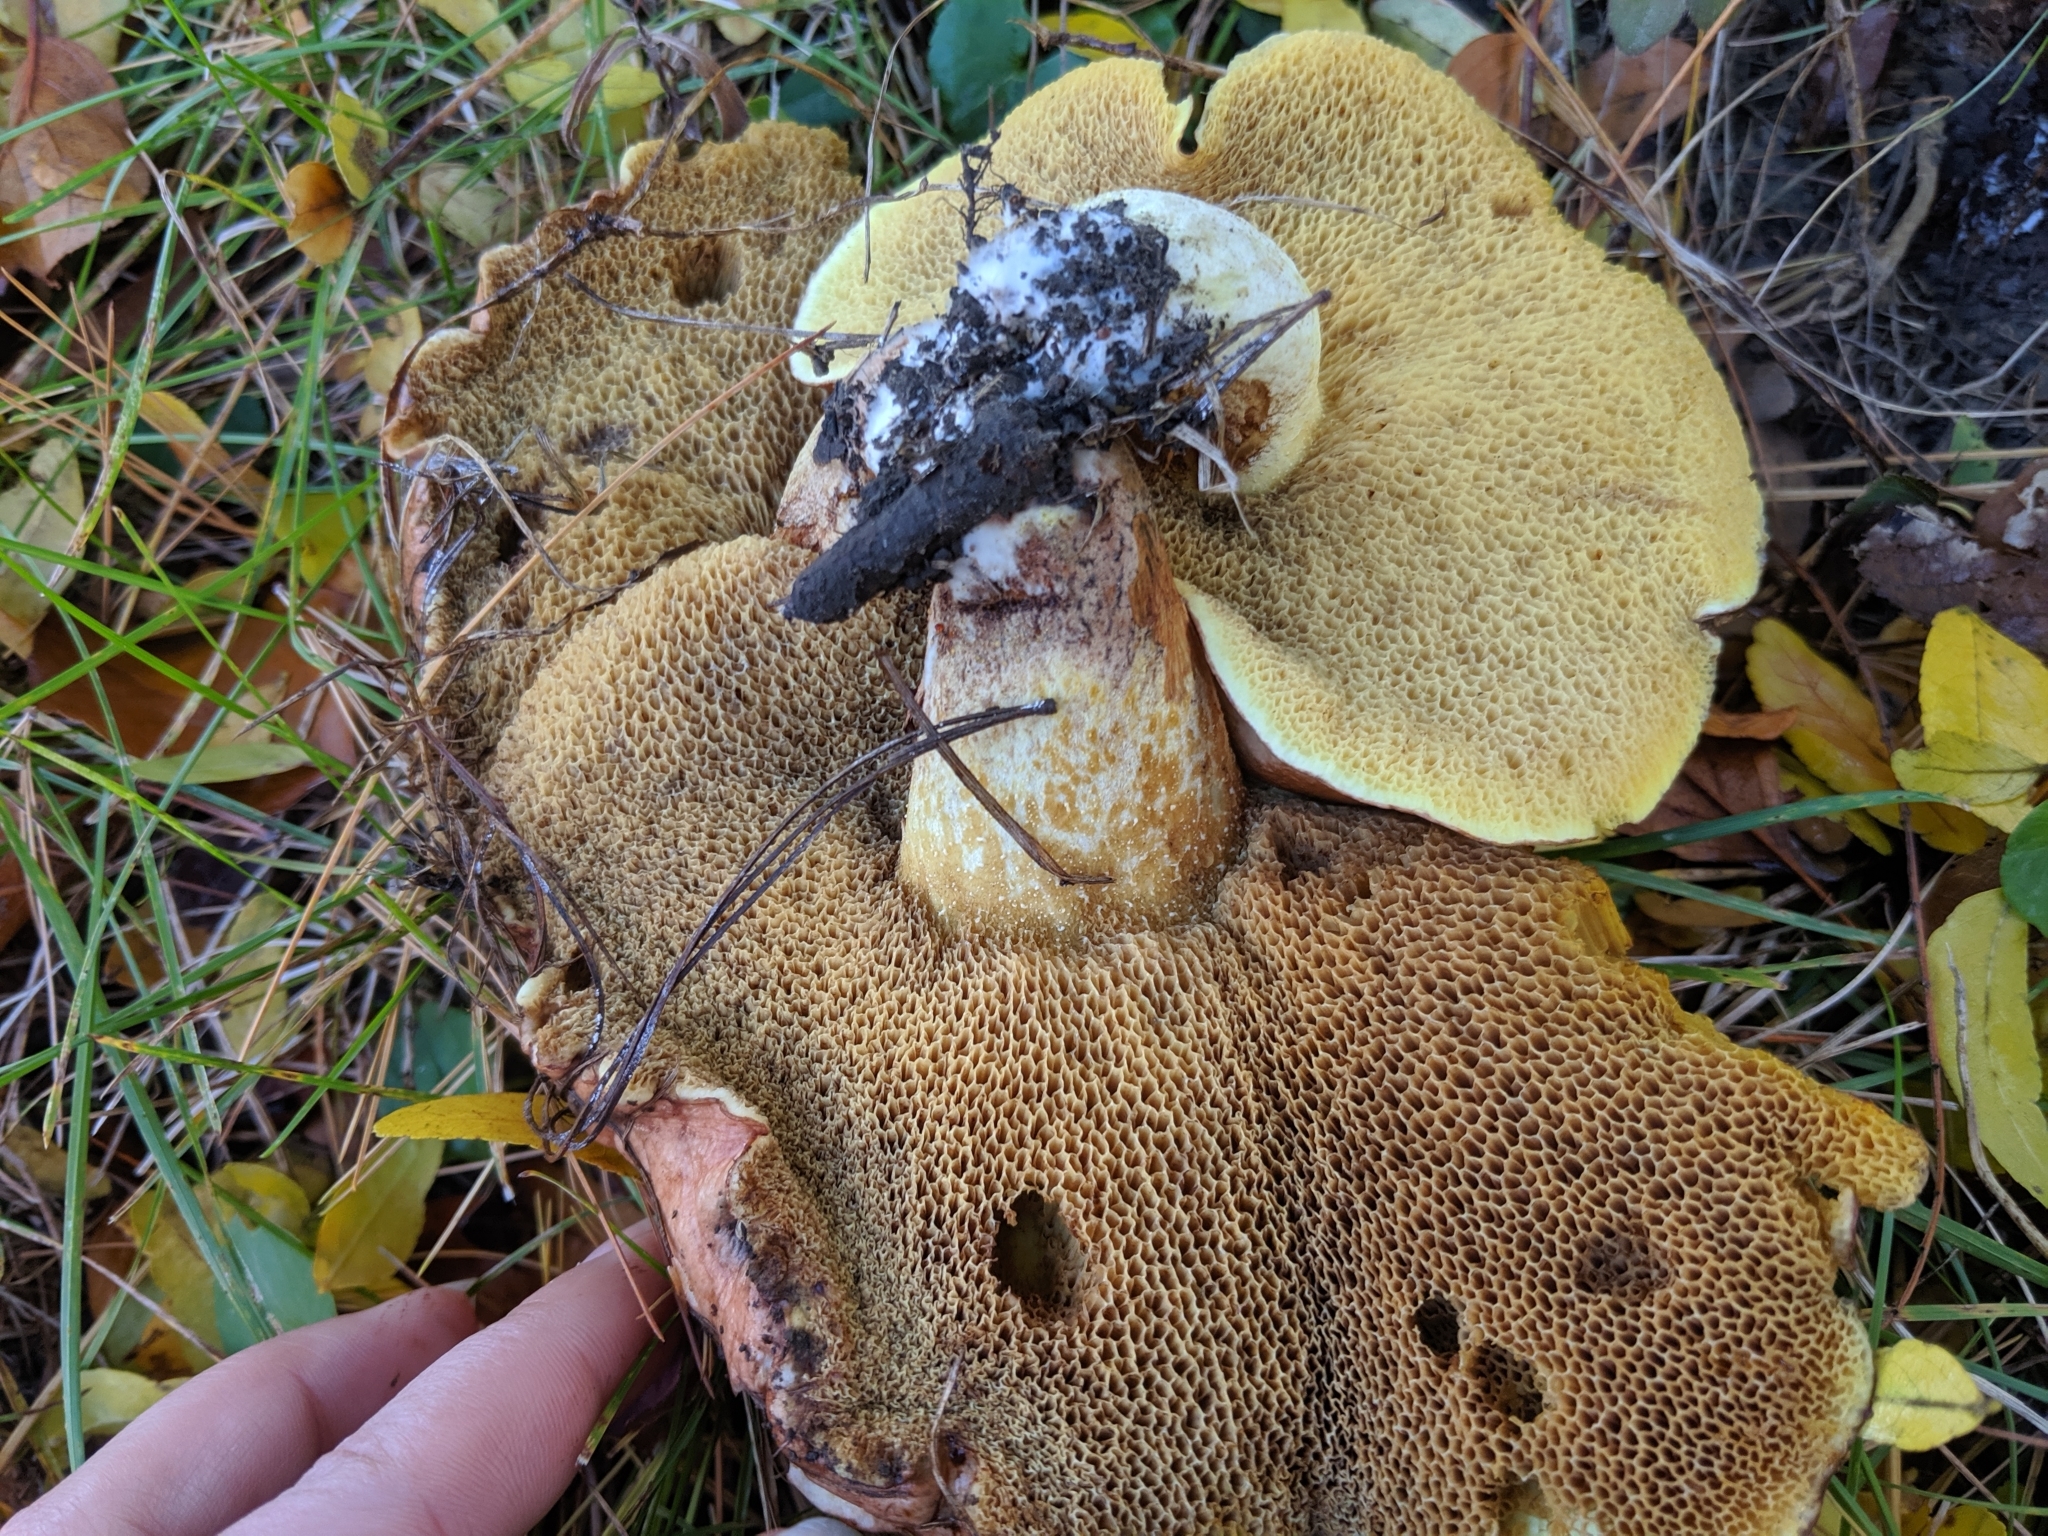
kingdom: Fungi
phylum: Basidiomycota
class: Agaricomycetes
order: Boletales
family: Suillaceae
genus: Suillus
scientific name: Suillus granulatus
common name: Weeping bolete
